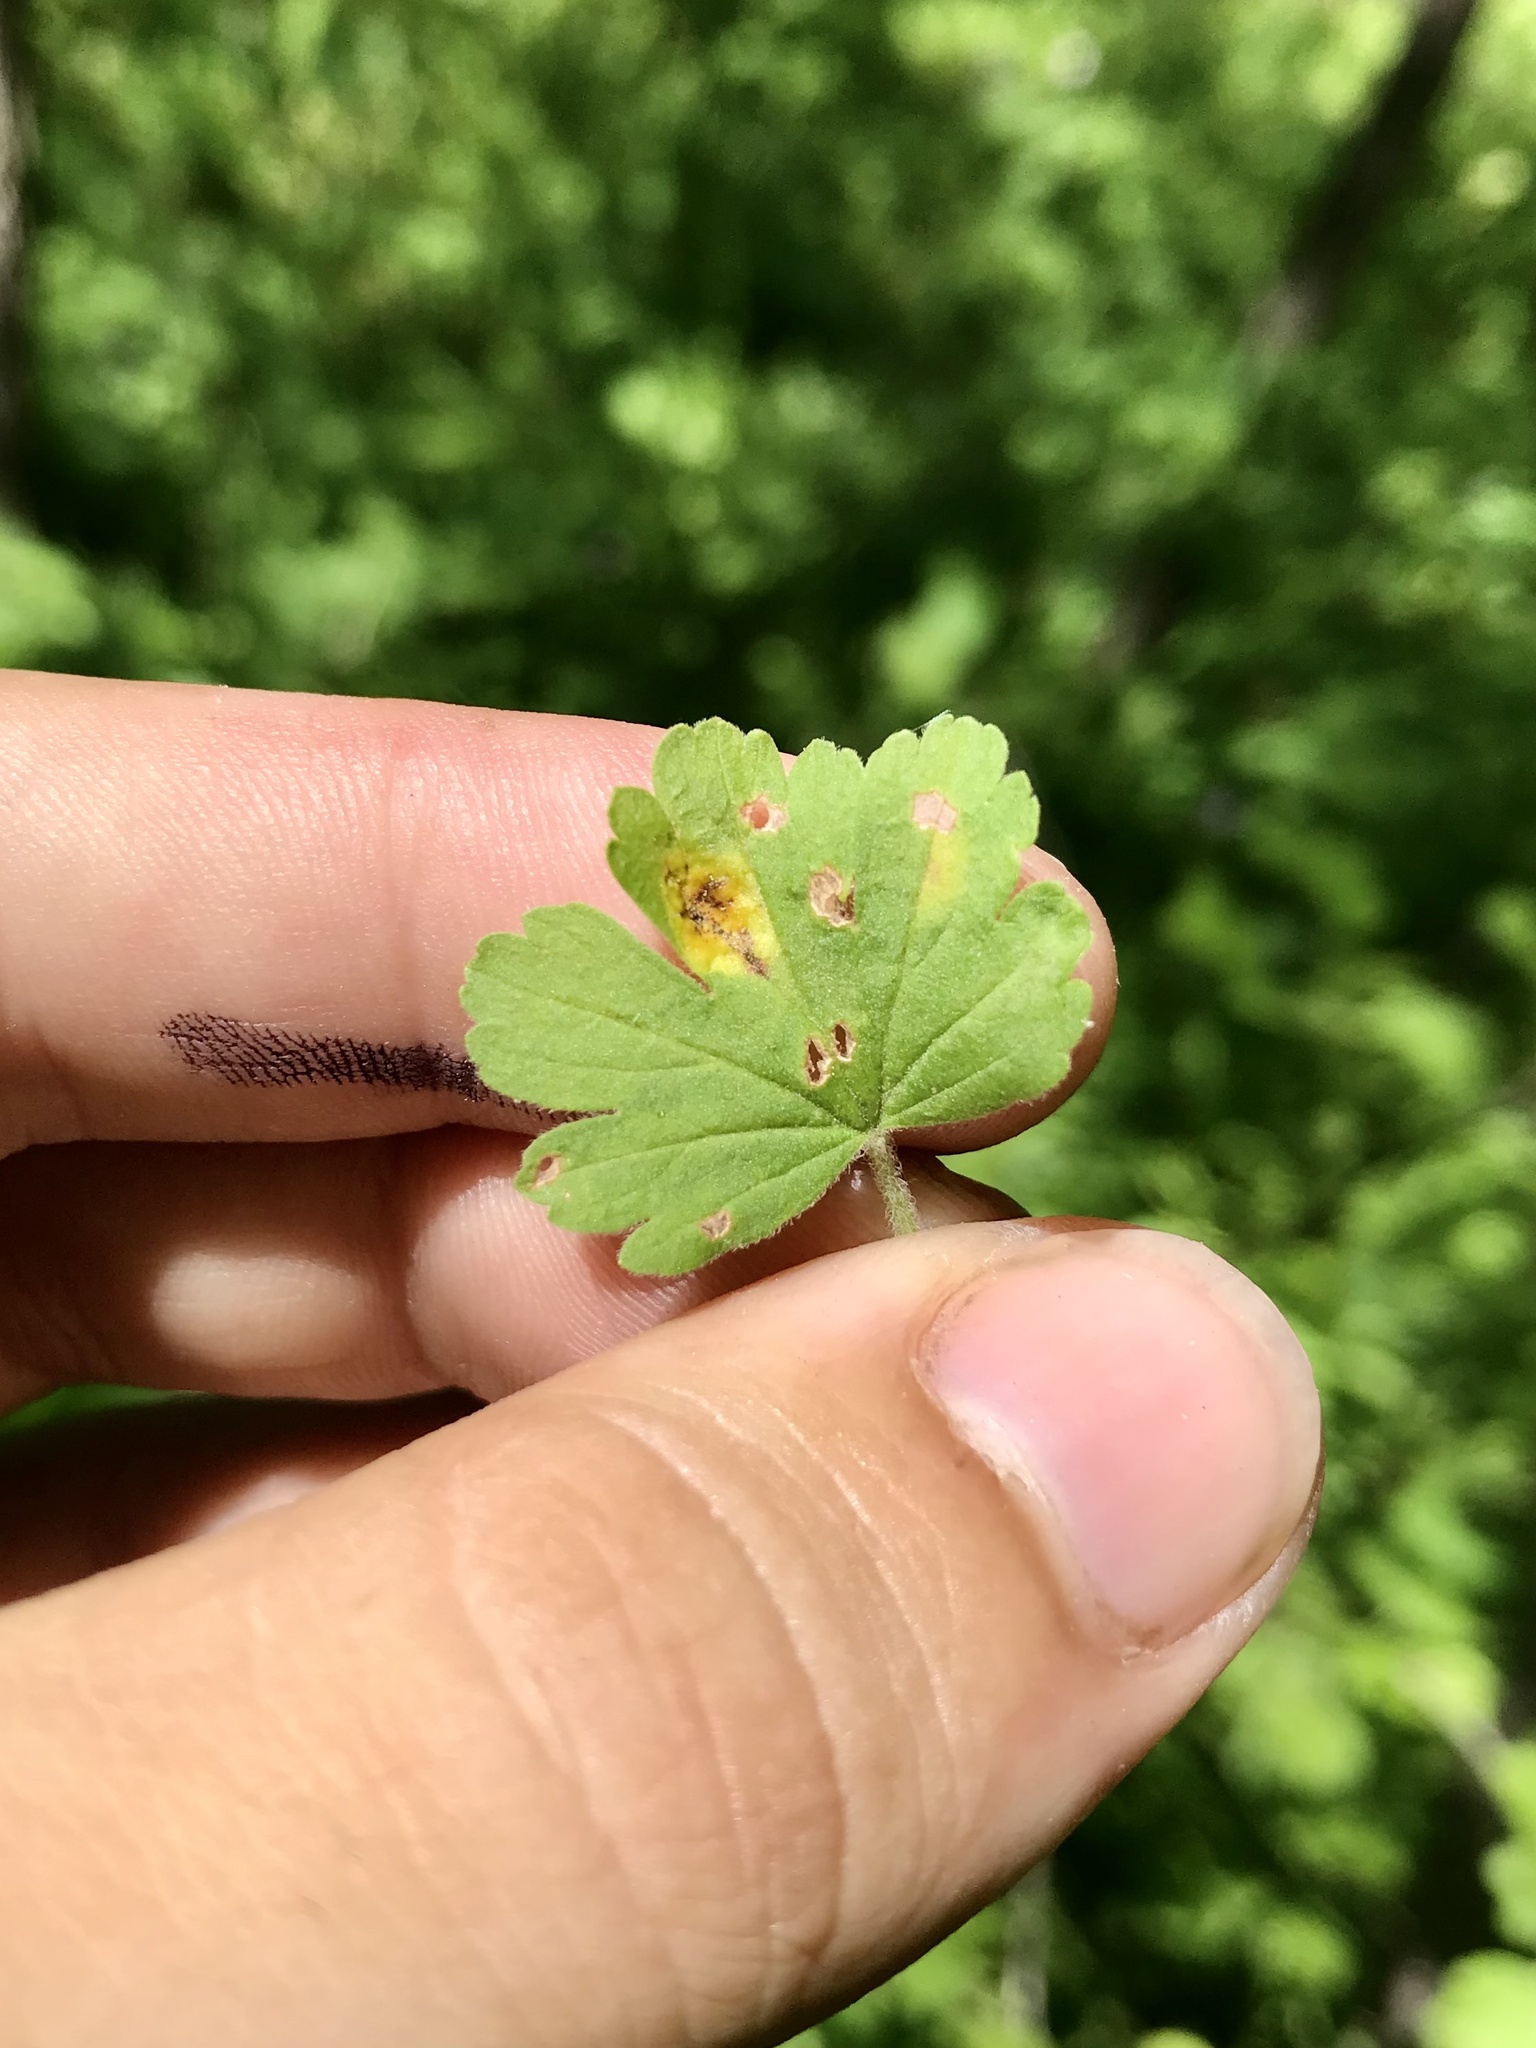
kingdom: Fungi
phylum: Basidiomycota
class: Pucciniomycetes
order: Pucciniales
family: Pucciniaceae
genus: Puccinia
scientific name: Puccinia caricina
